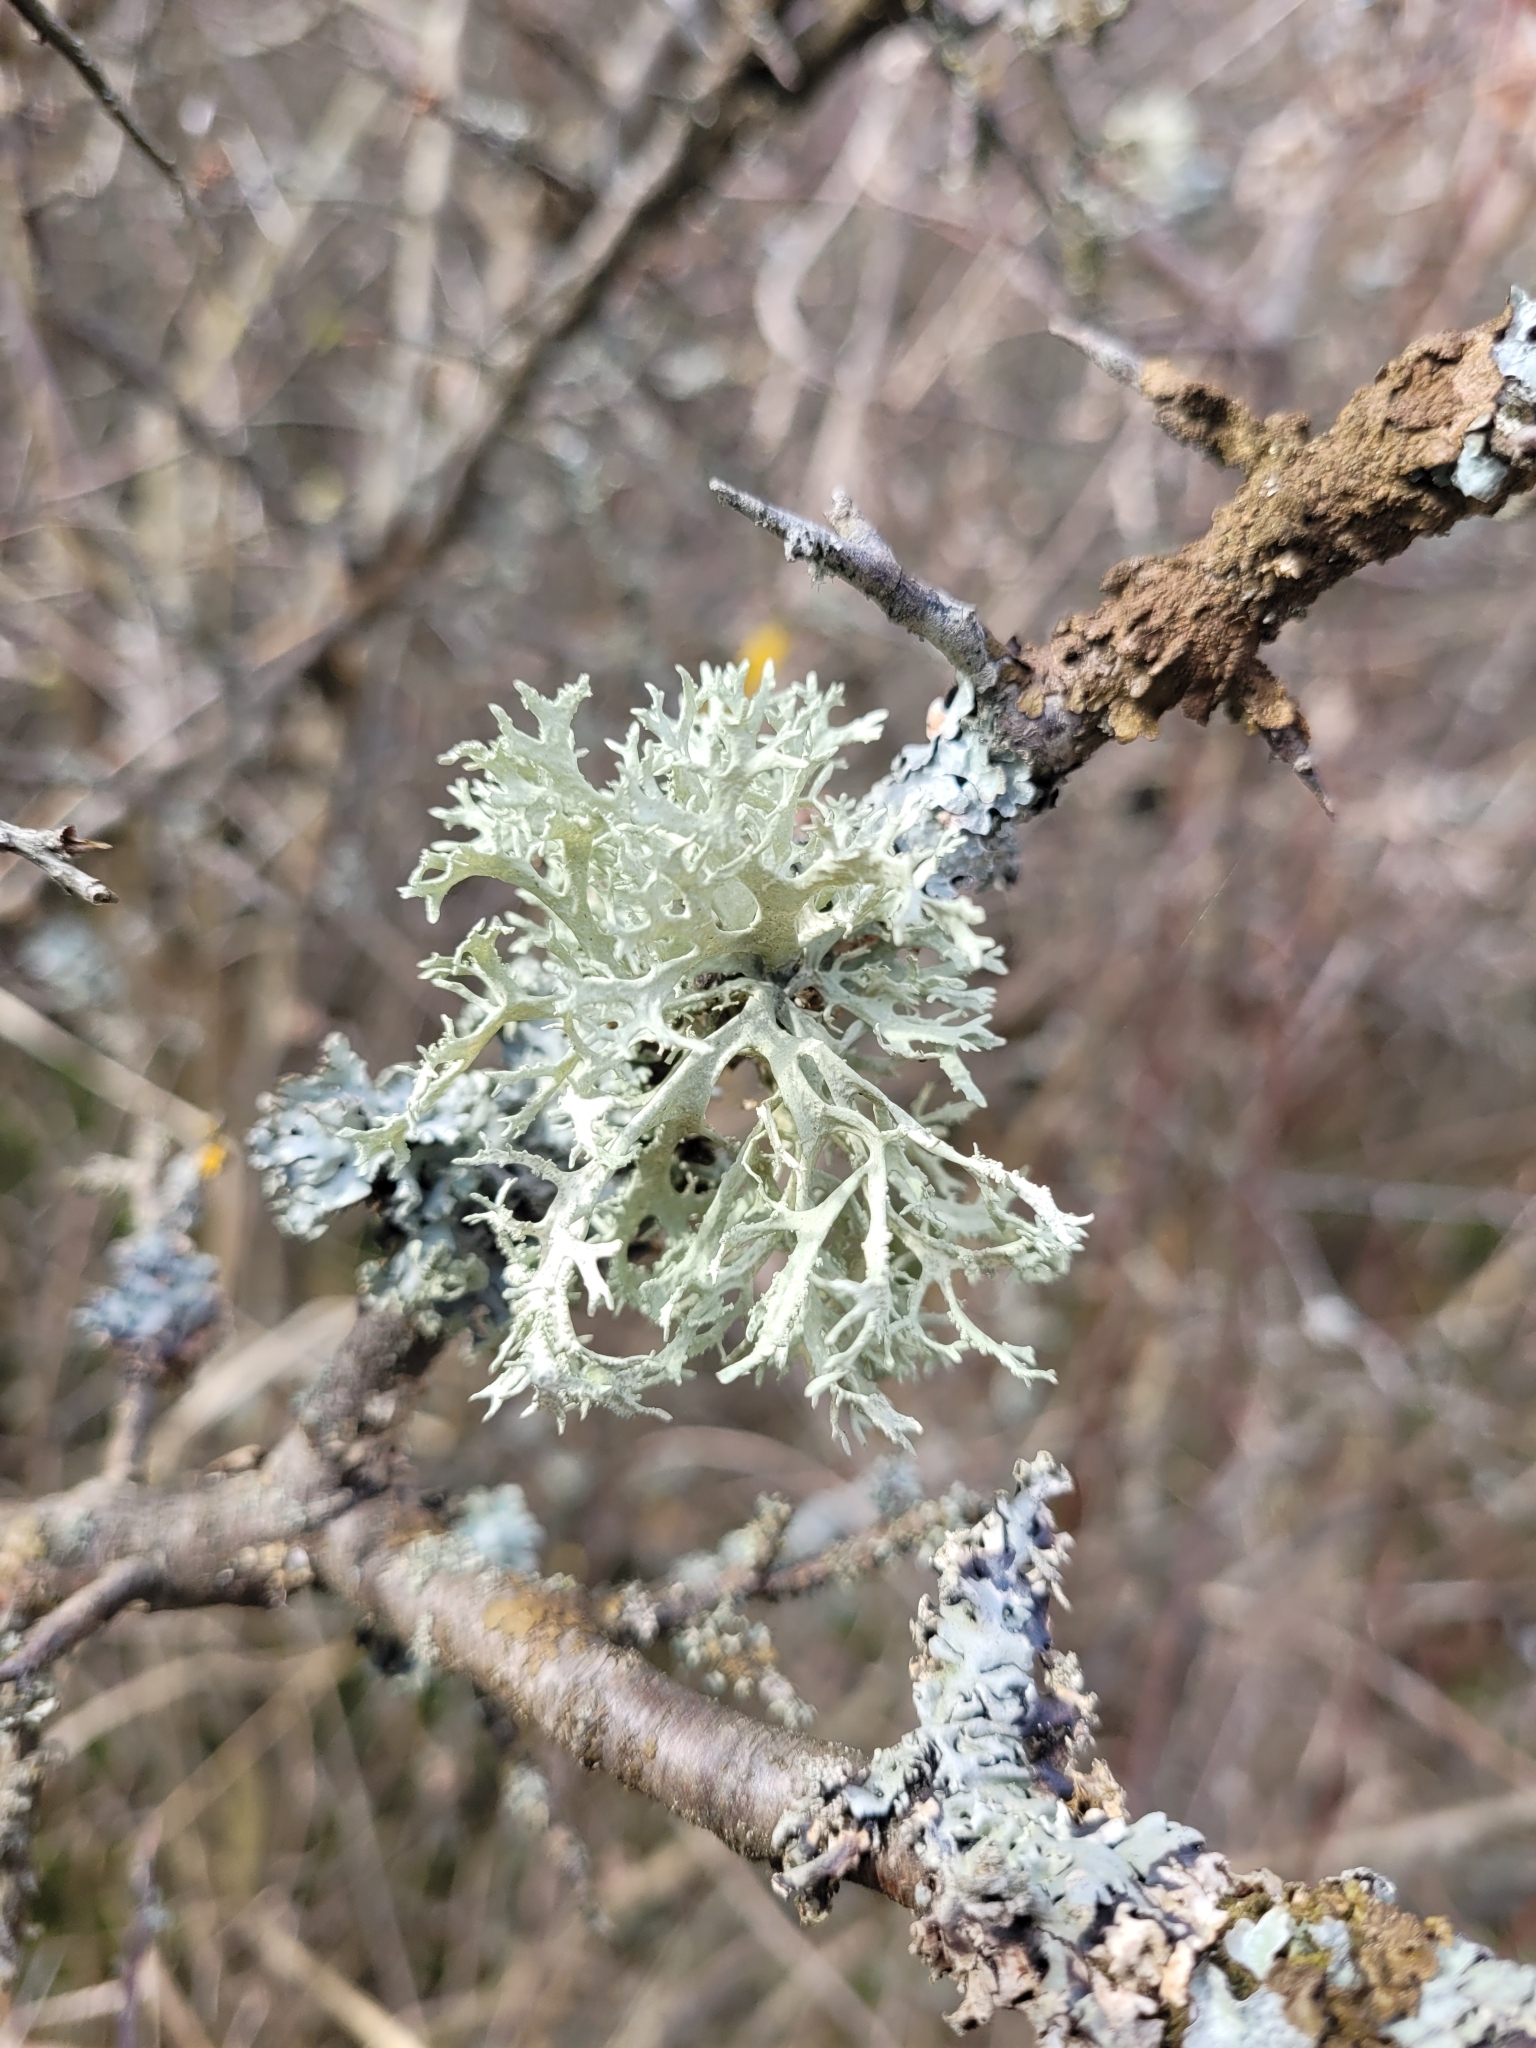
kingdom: Fungi
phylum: Ascomycota
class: Lecanoromycetes
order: Lecanorales
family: Parmeliaceae
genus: Evernia
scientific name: Evernia prunastri
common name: Oak moss
